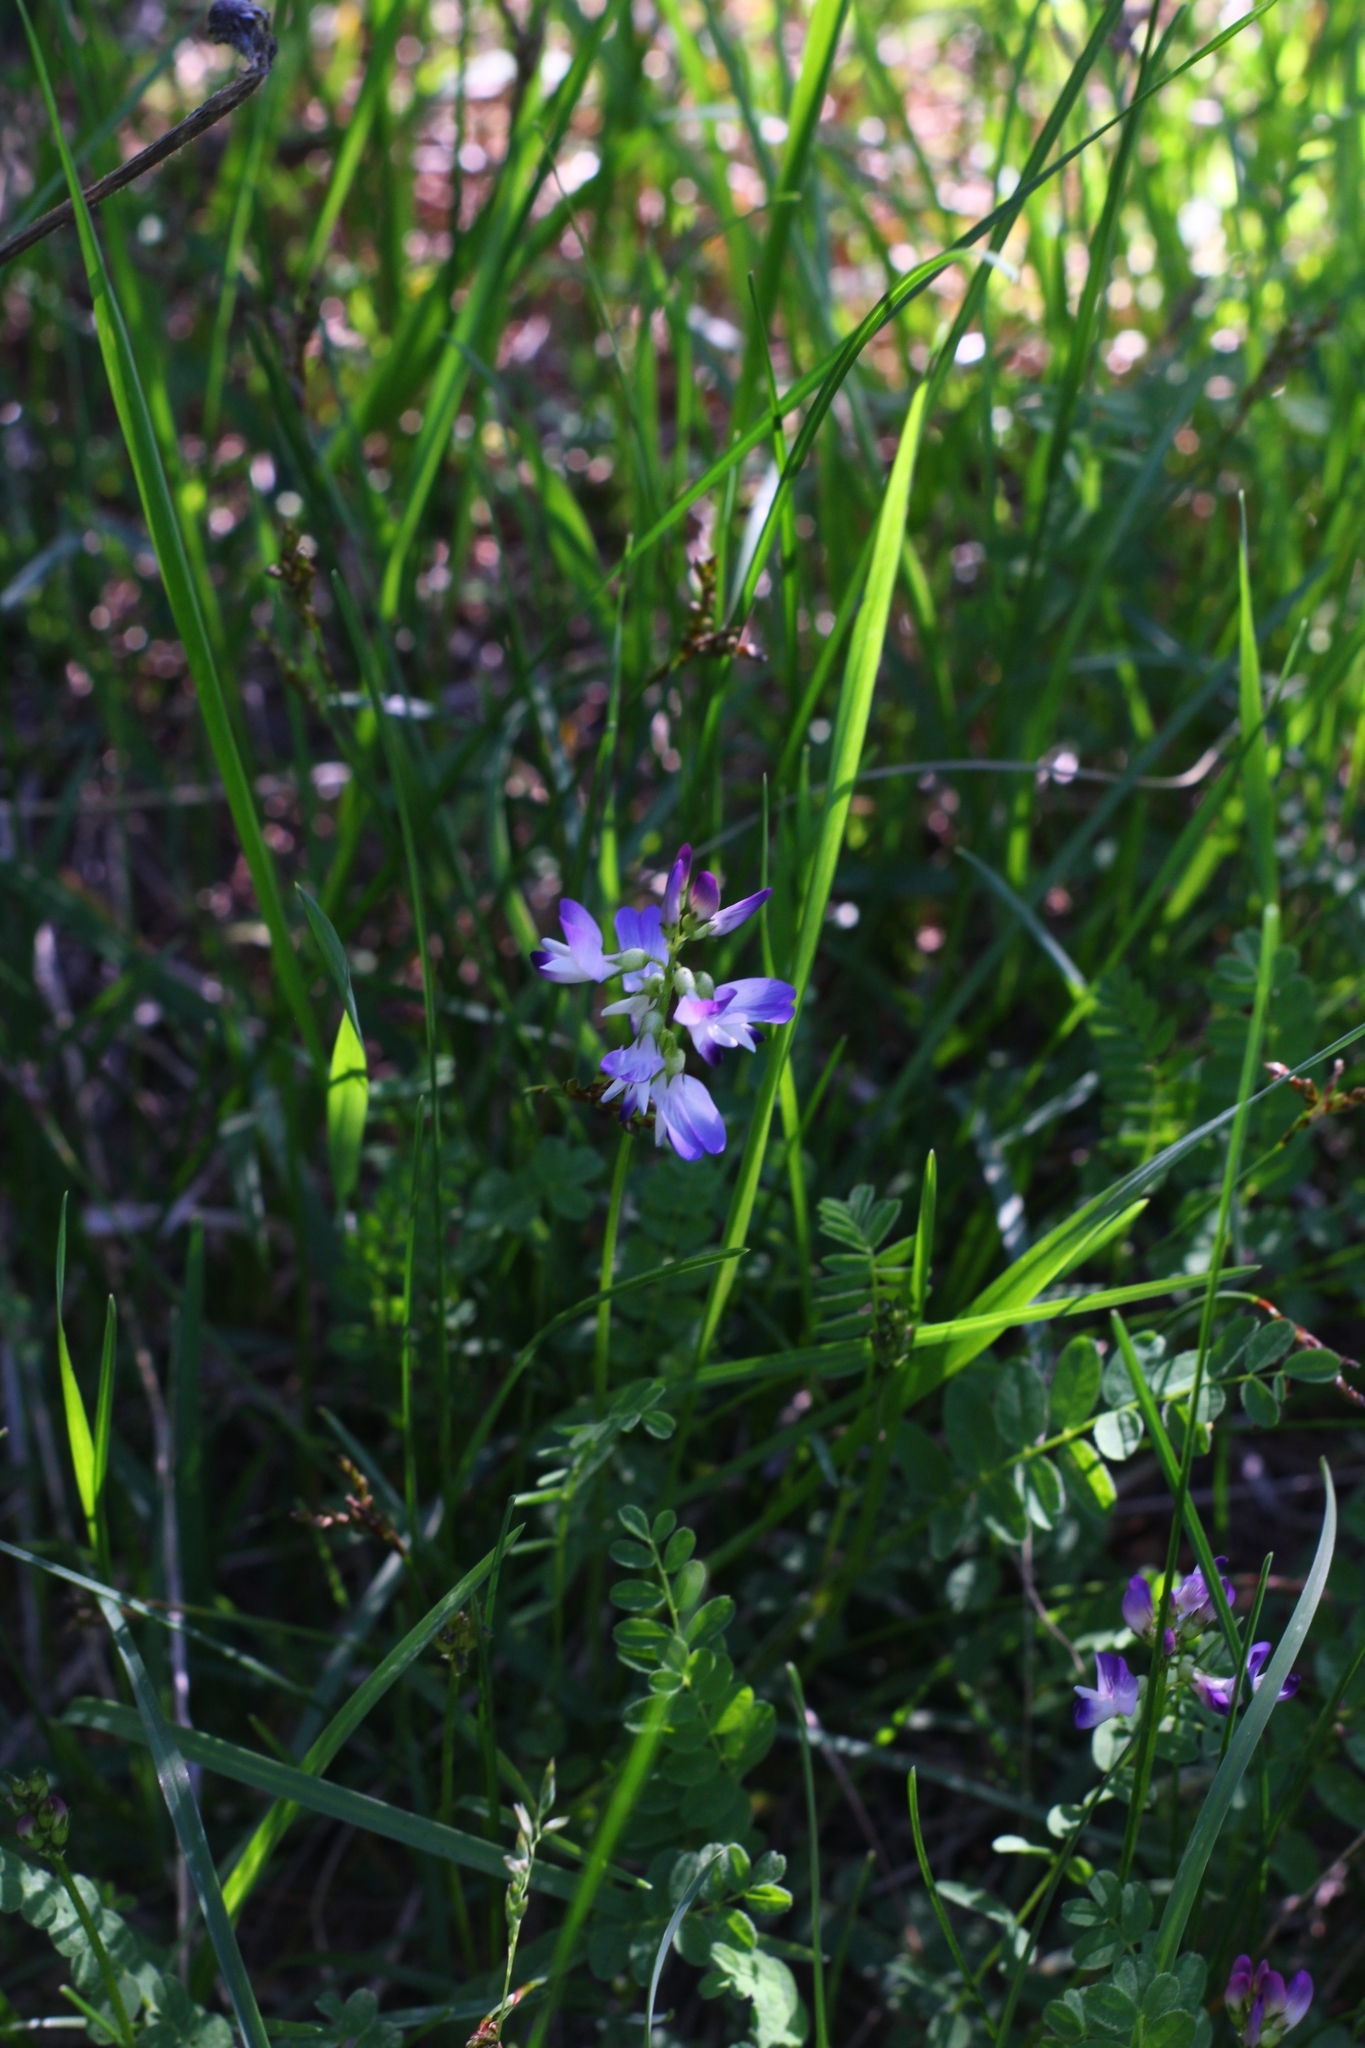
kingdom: Plantae
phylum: Tracheophyta
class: Magnoliopsida
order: Fabales
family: Fabaceae
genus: Astragalus
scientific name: Astragalus alpinus
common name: Alpine milk-vetch
